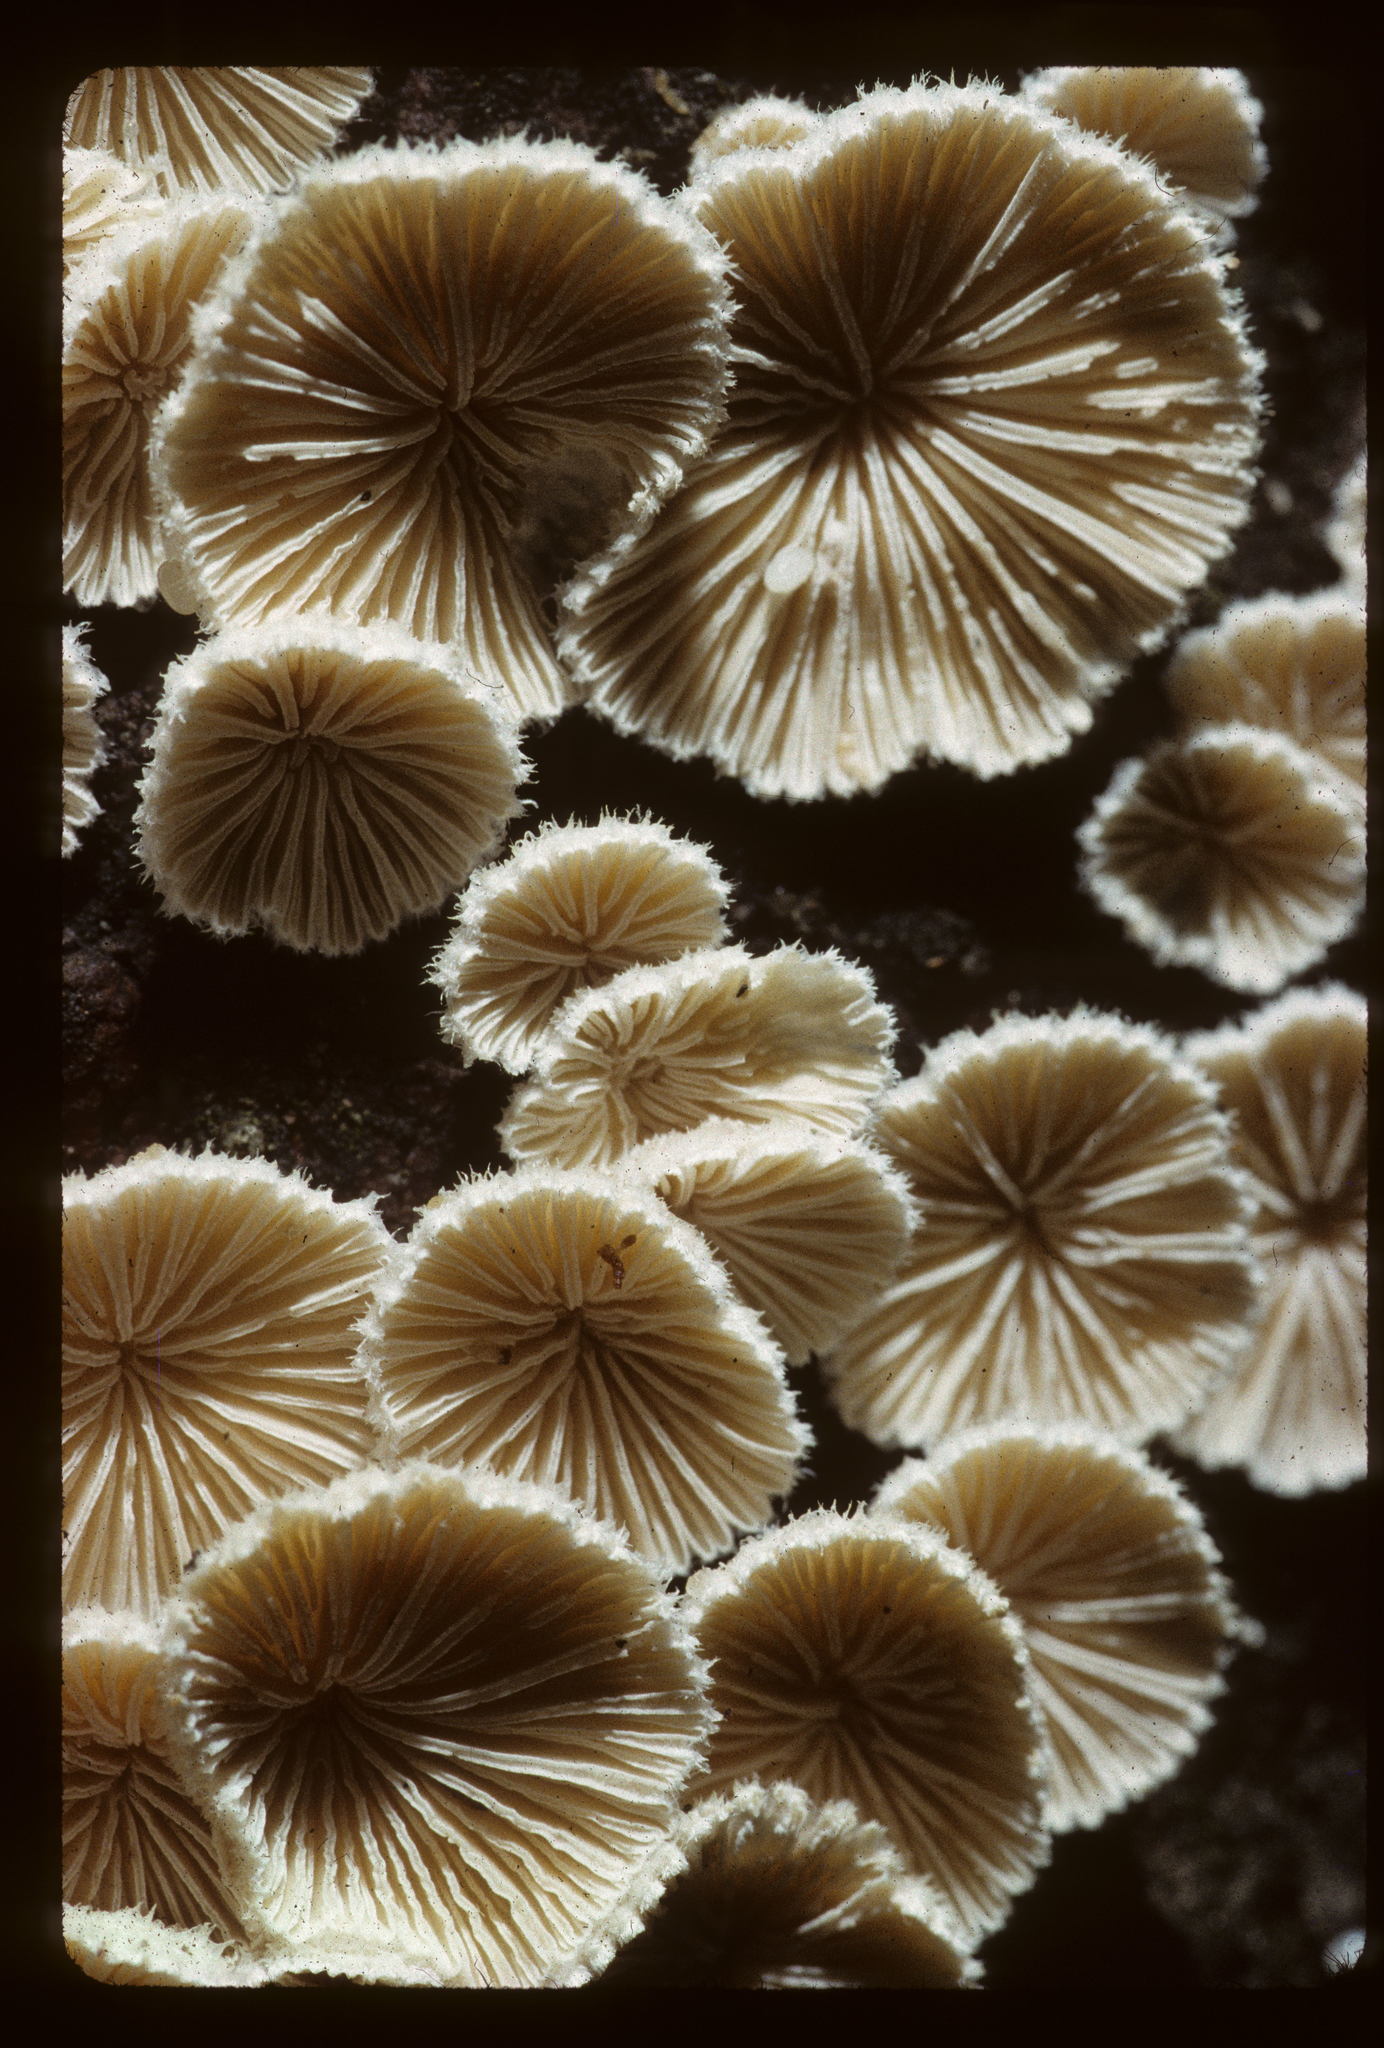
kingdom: Fungi
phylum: Basidiomycota
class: Agaricomycetes
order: Agaricales
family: Schizophyllaceae
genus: Schizophyllum
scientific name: Schizophyllum commune
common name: Common porecrust
